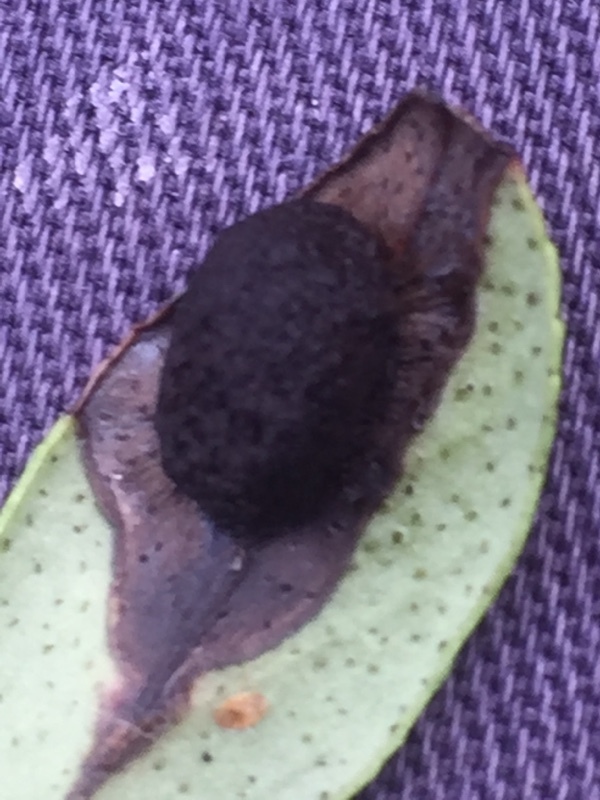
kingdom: Fungi
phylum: Basidiomycota
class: Exobasidiomycetes
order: Exobasidiales
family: Exobasidiaceae
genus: Exobasidium
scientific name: Exobasidium vaccinii
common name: Cowberry redleaf
